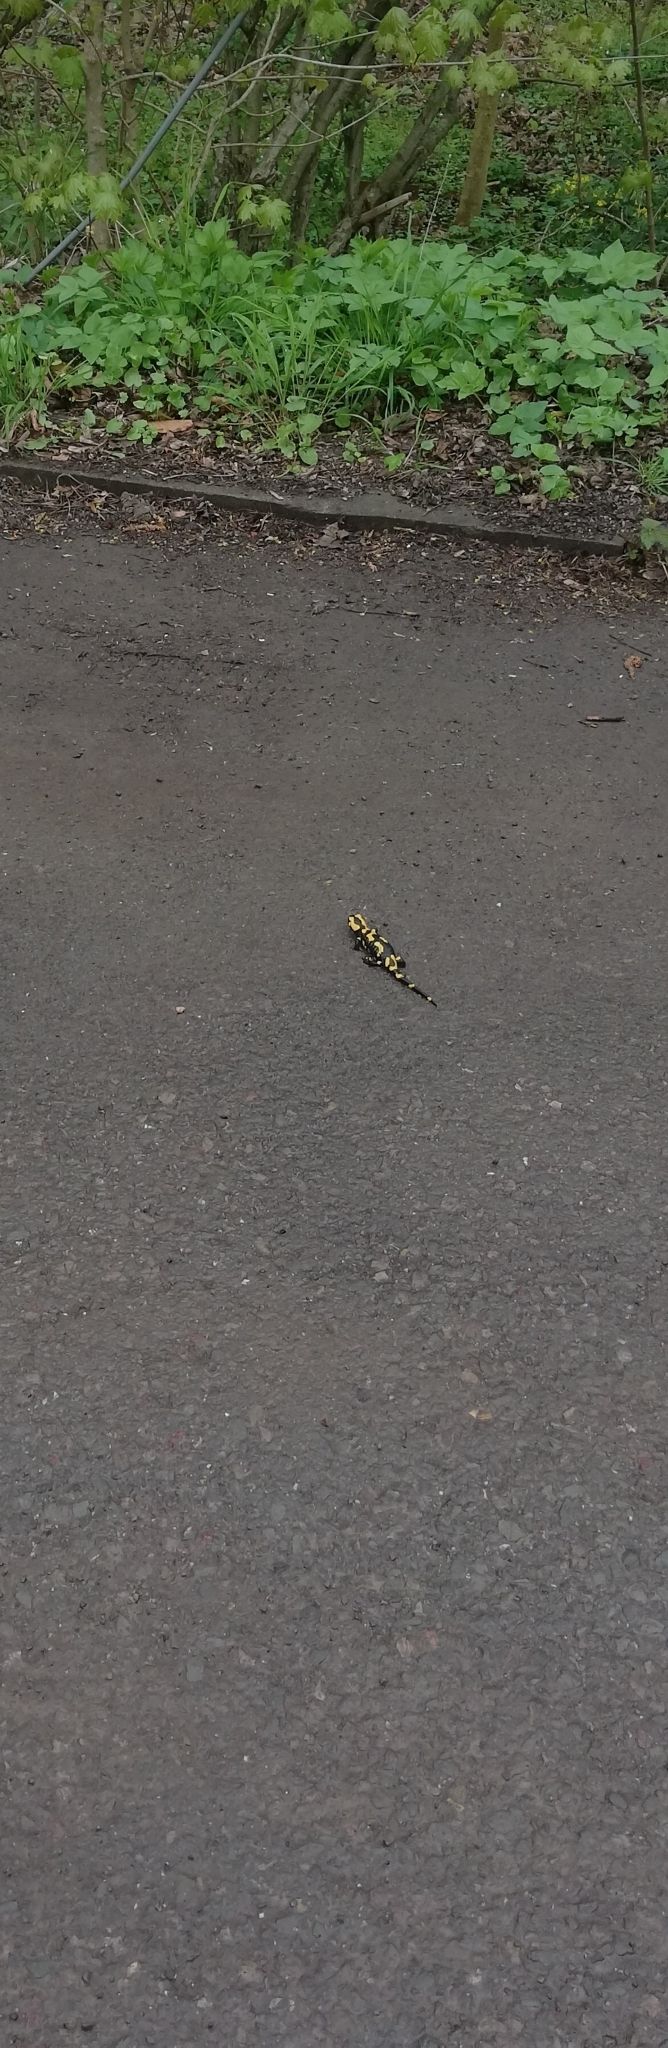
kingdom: Animalia
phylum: Chordata
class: Amphibia
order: Caudata
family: Salamandridae
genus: Salamandra
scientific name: Salamandra salamandra
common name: Fire salamander
